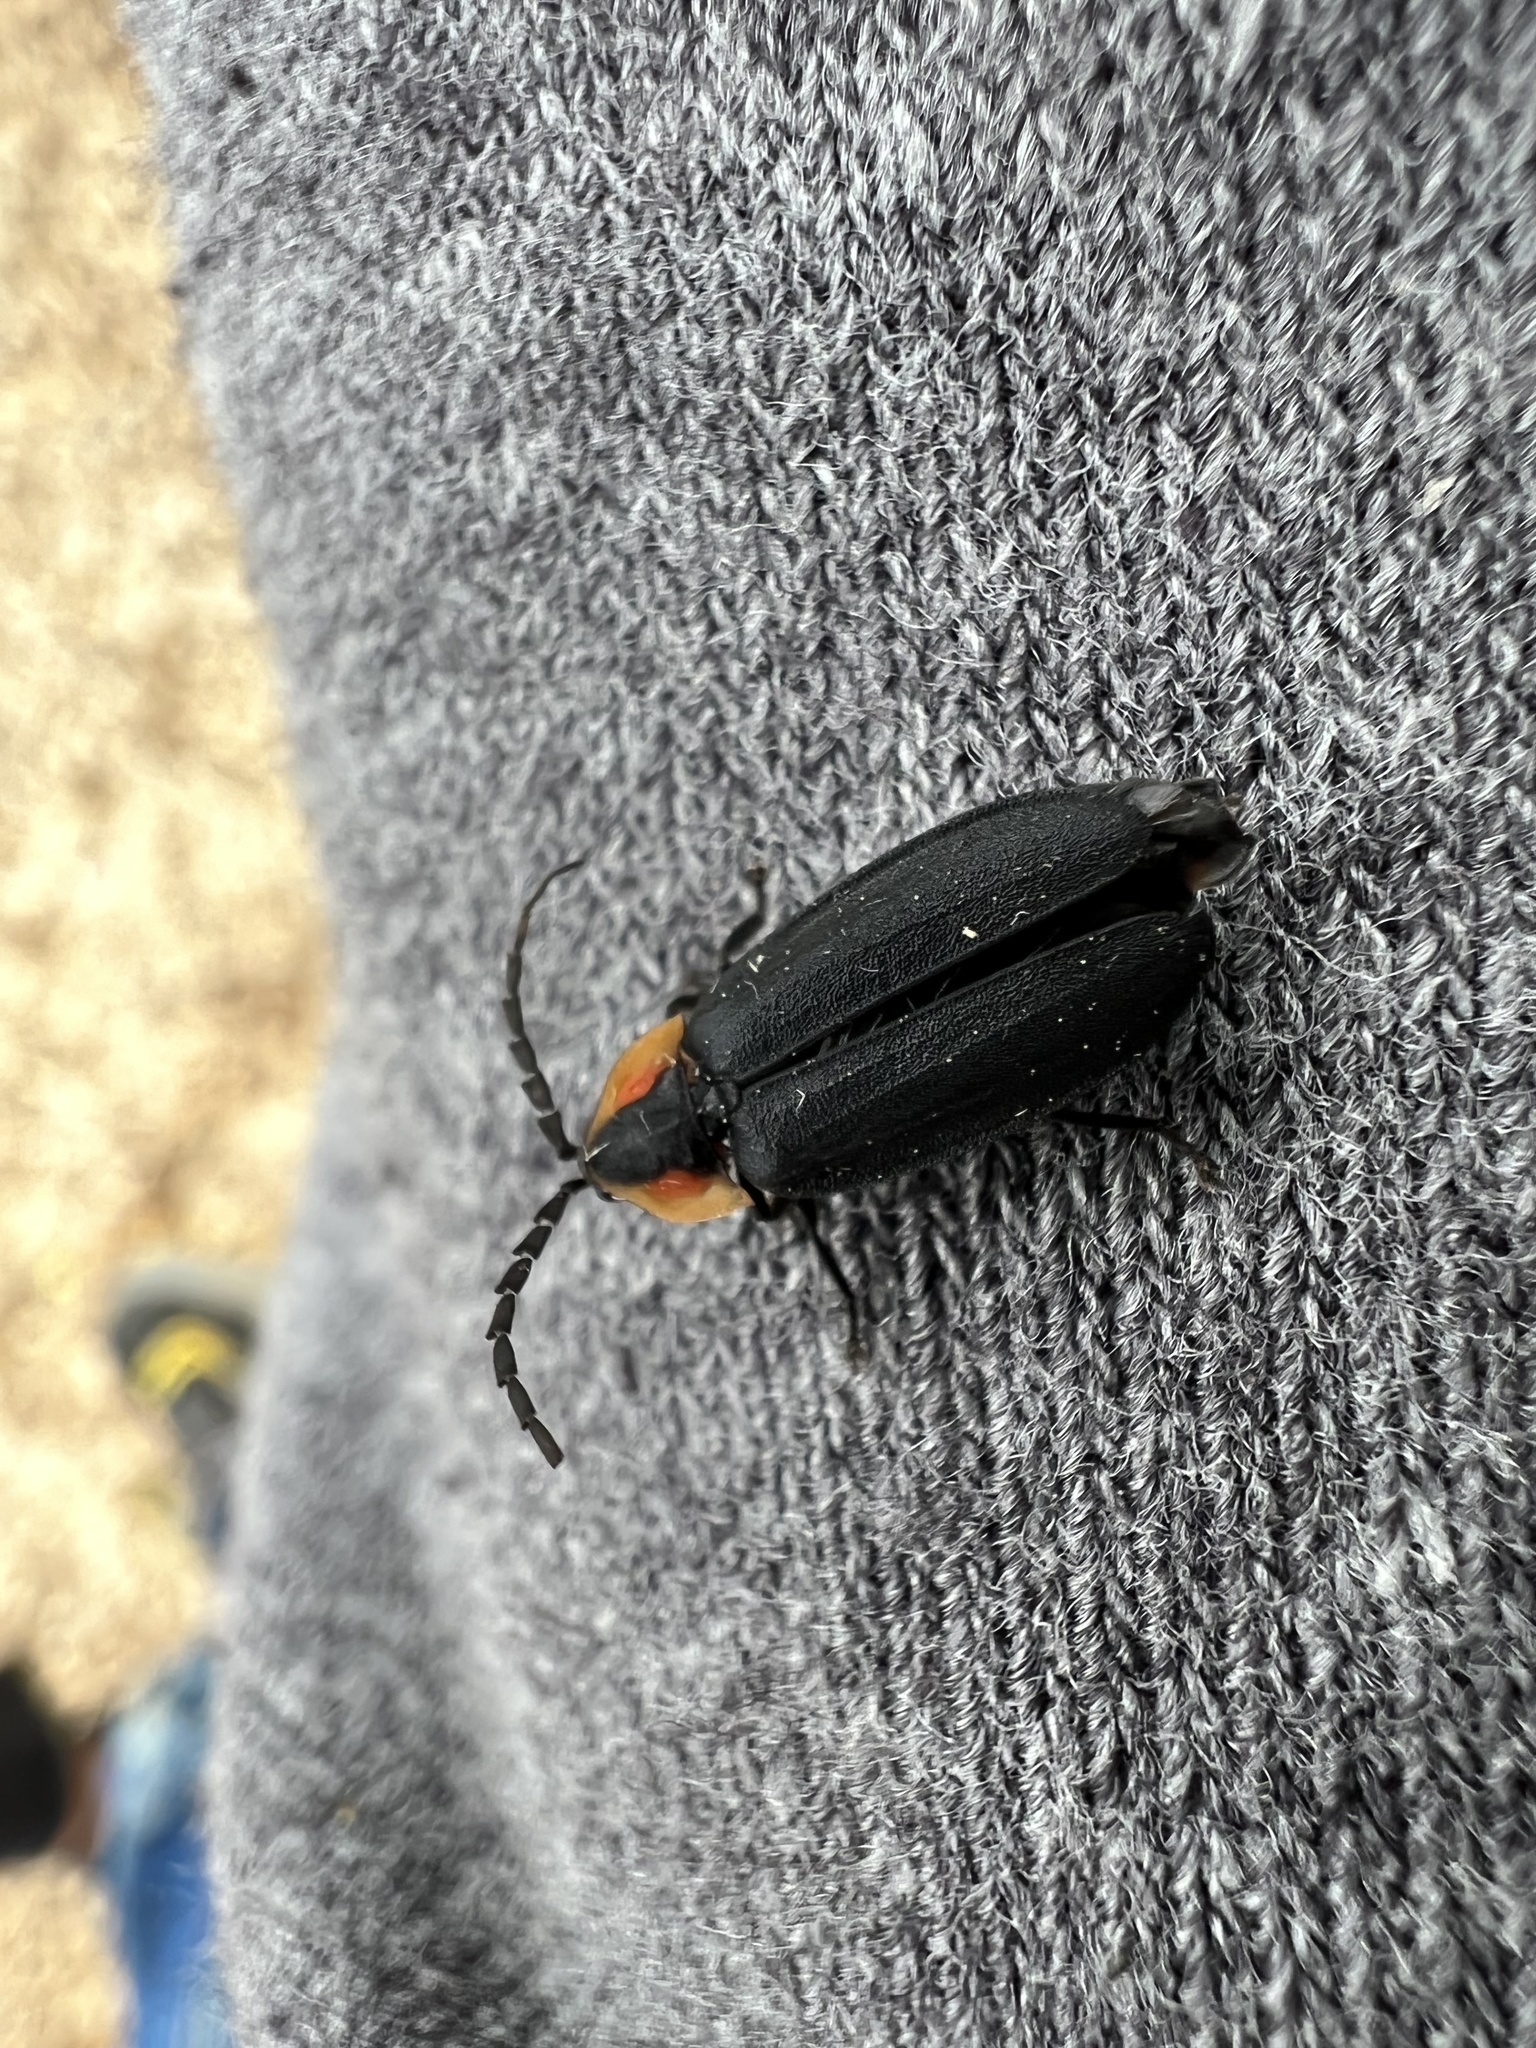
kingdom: Animalia
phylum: Arthropoda
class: Insecta
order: Coleoptera
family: Lampyridae
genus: Lucidota
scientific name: Lucidota atra
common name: Black firefly
